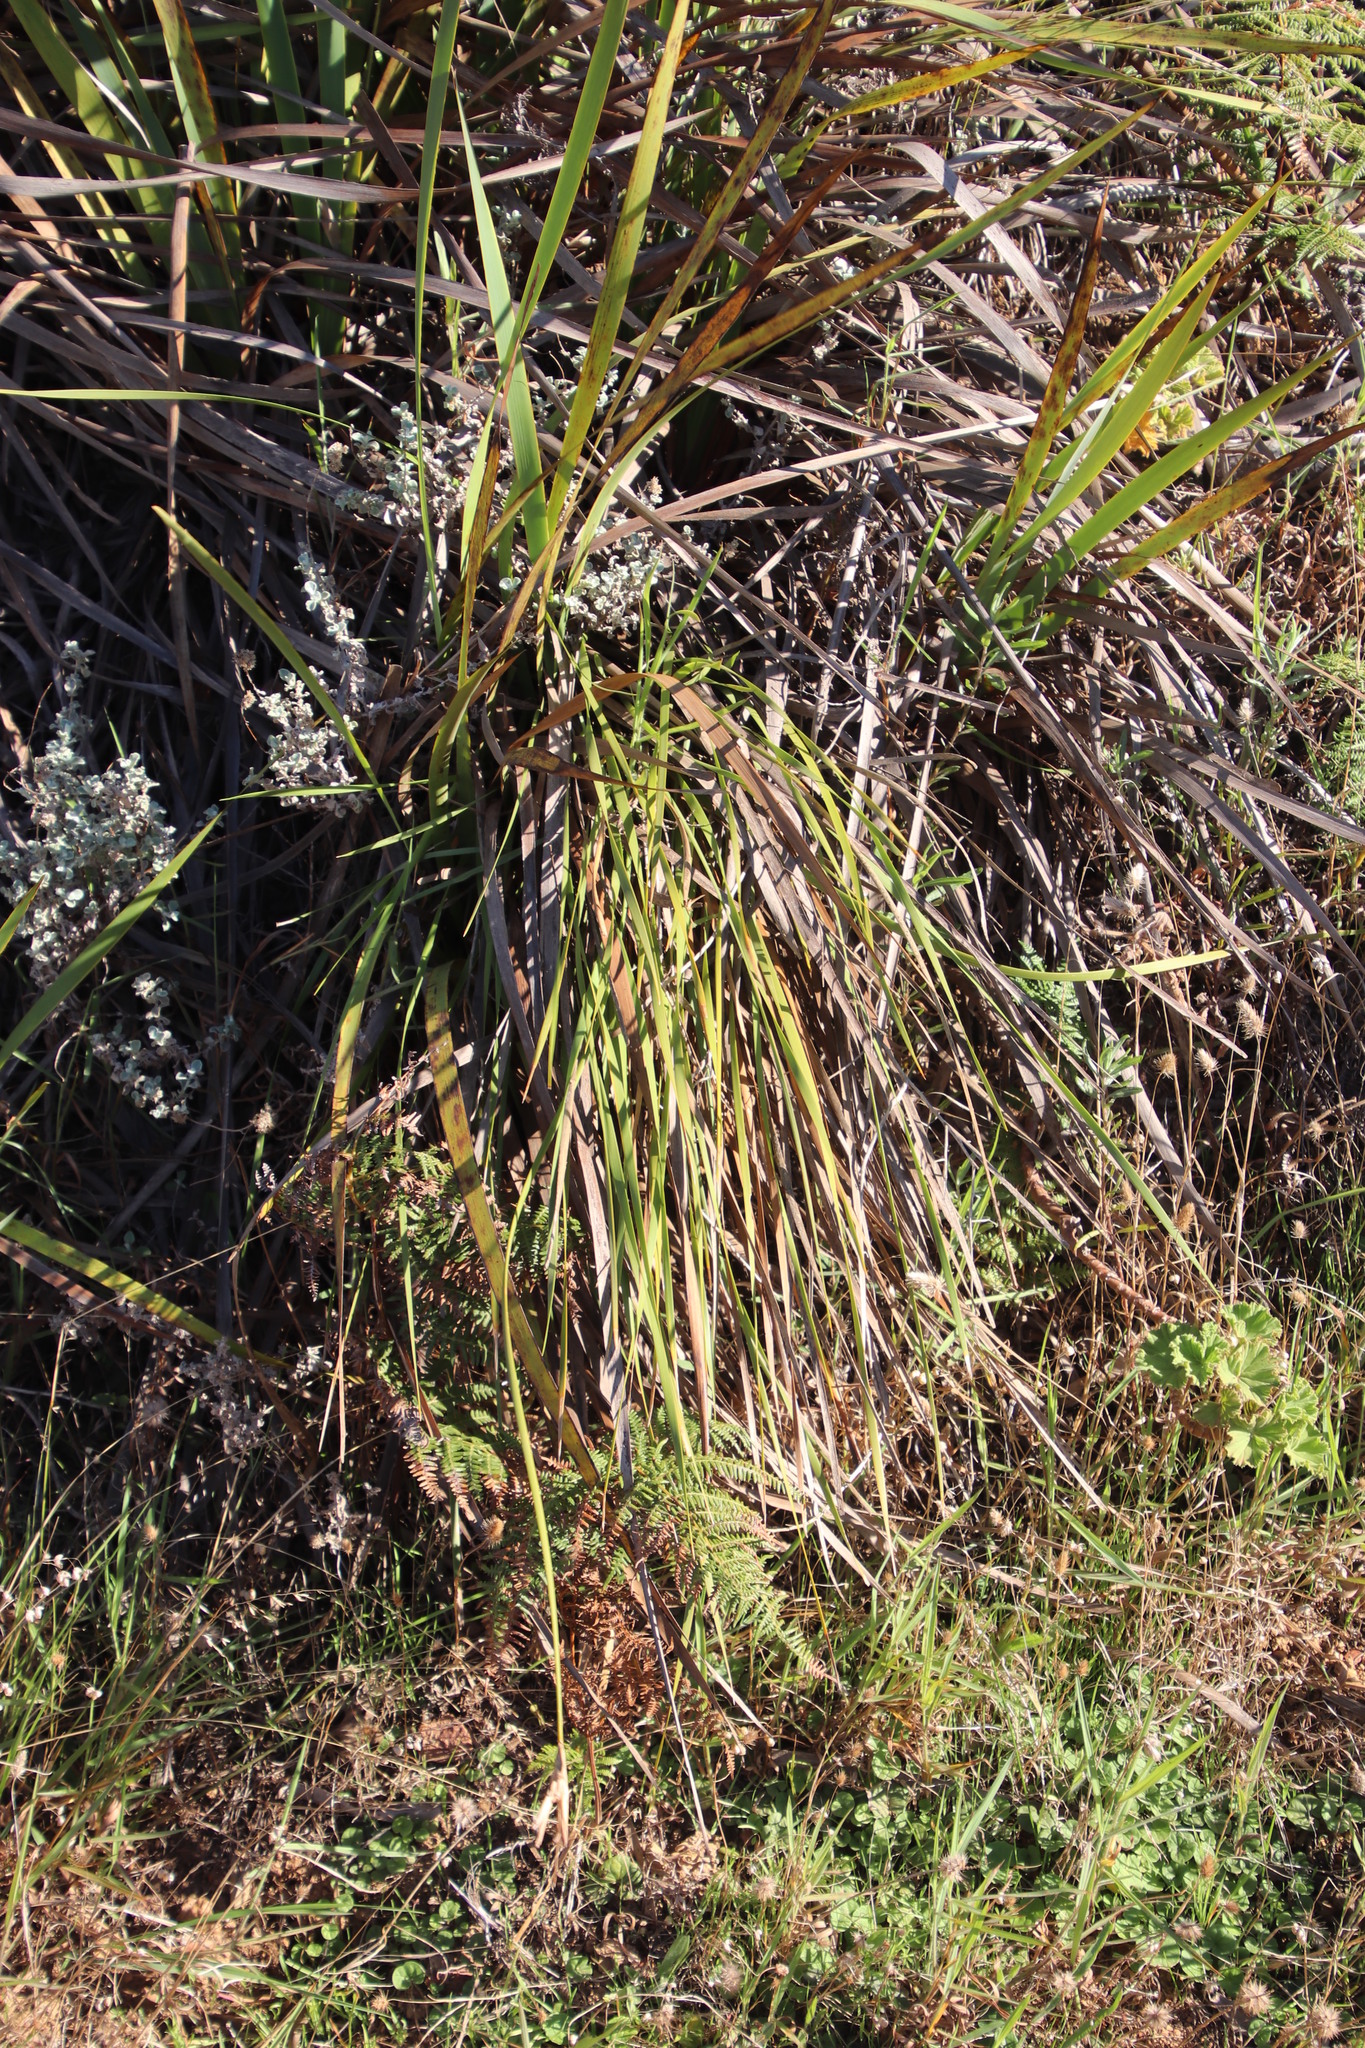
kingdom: Plantae
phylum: Tracheophyta
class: Liliopsida
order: Asparagales
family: Iridaceae
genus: Bobartia
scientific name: Bobartia gladiata
